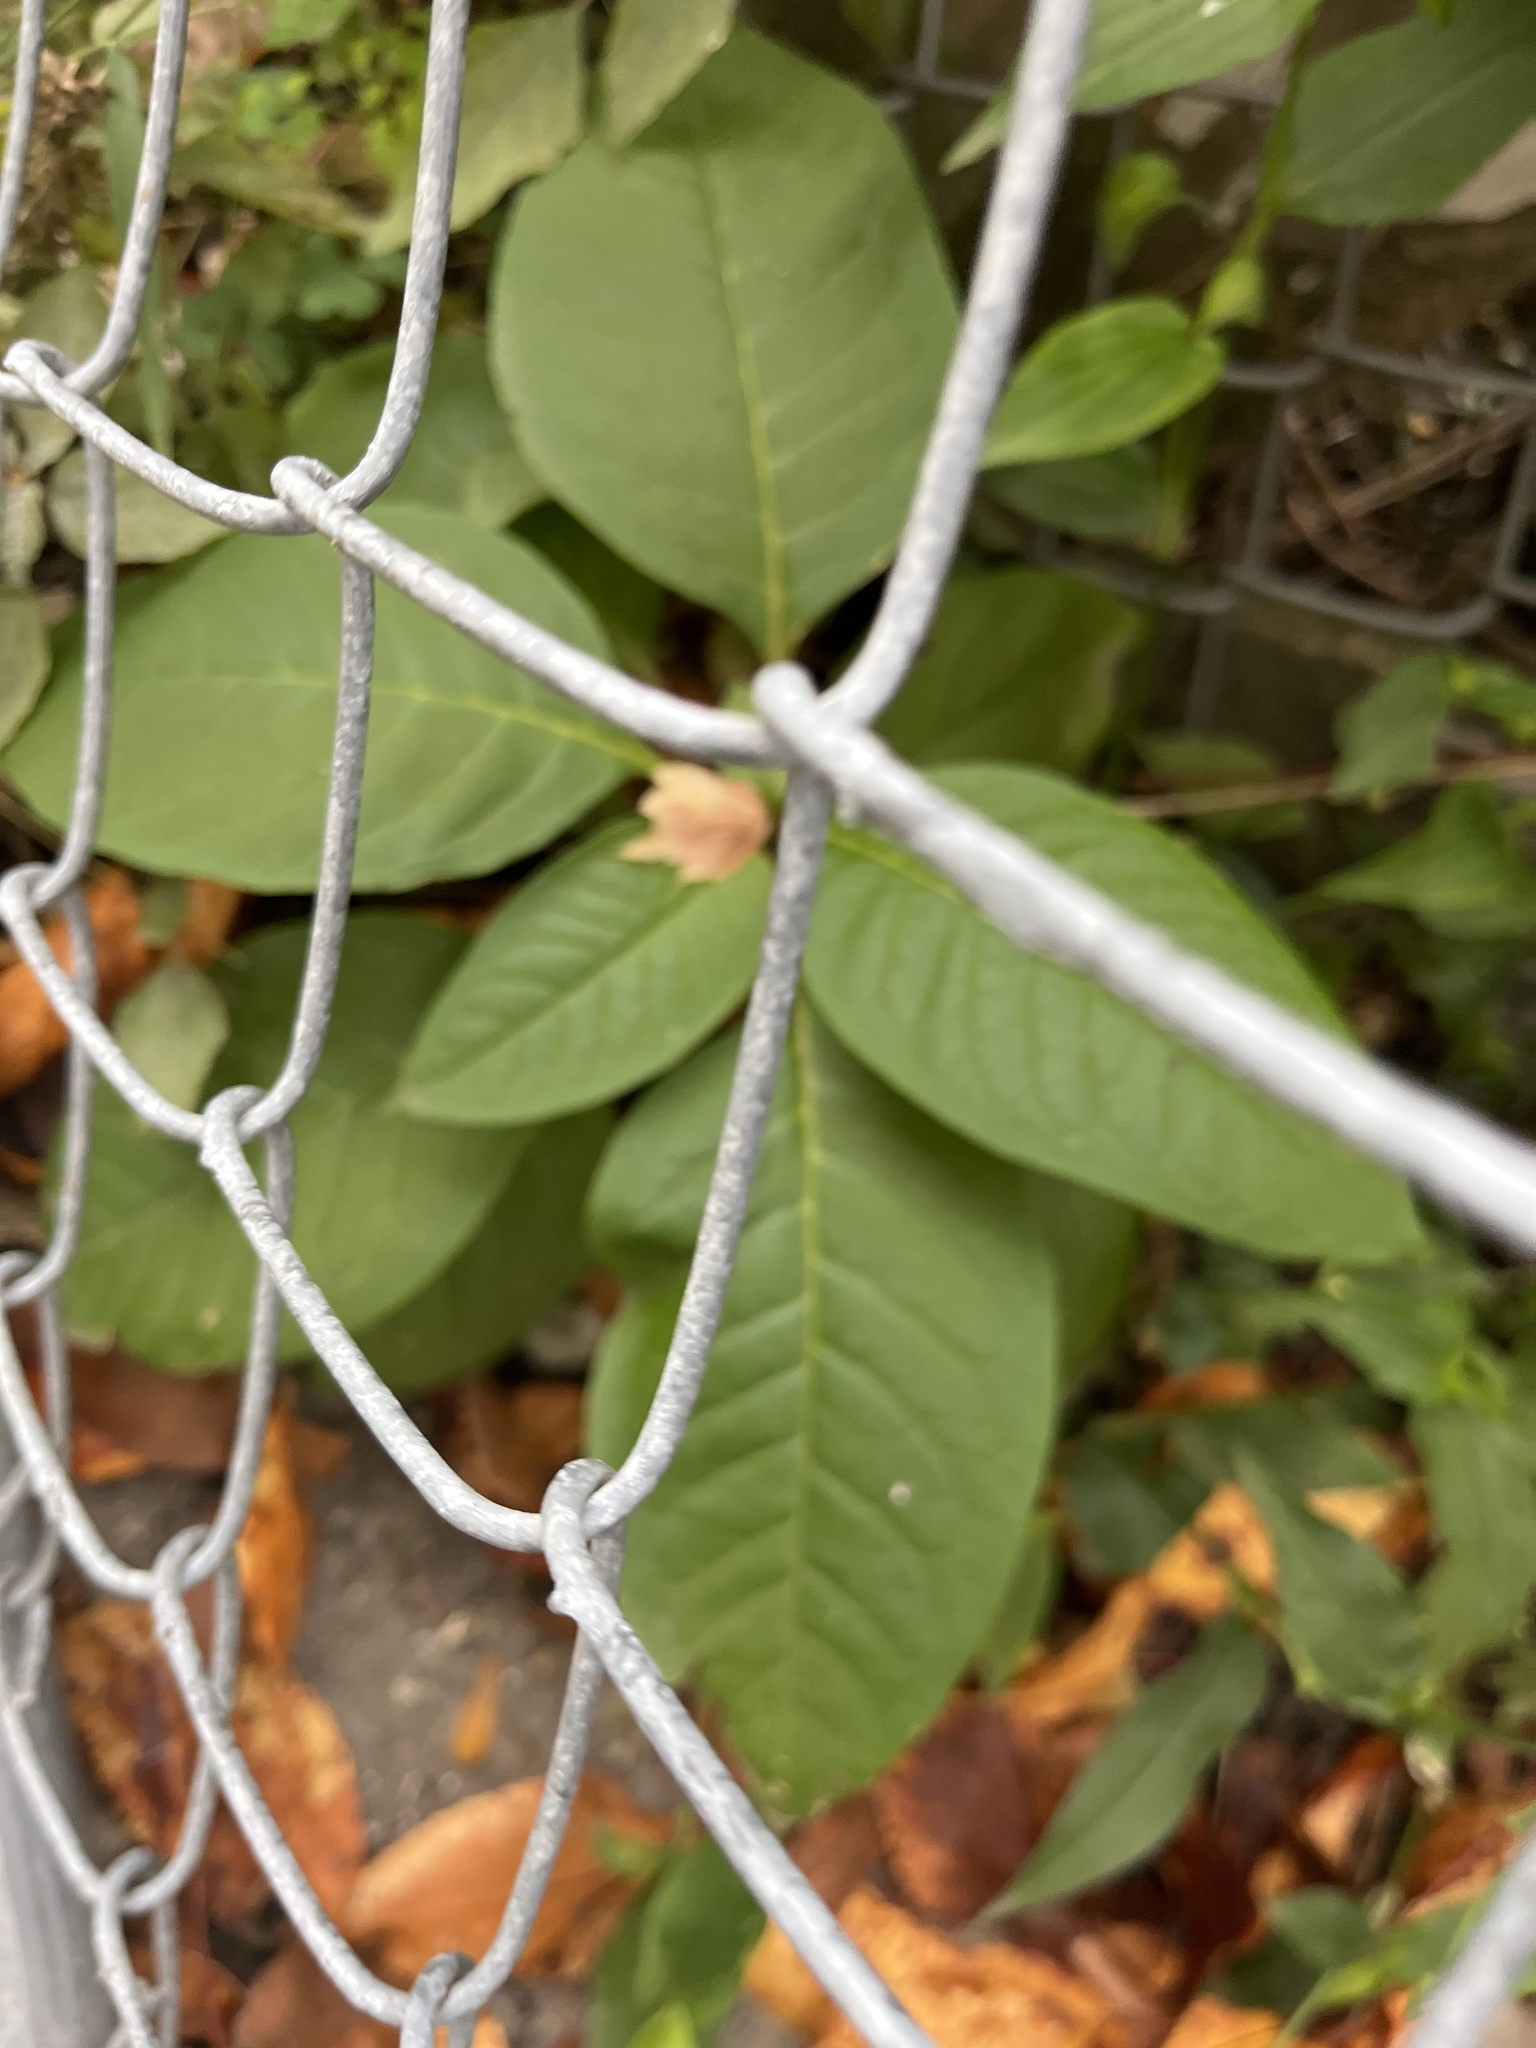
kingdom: Plantae
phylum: Tracheophyta
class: Magnoliopsida
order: Caryophyllales
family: Phytolaccaceae
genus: Phytolacca
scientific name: Phytolacca americana
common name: American pokeweed
